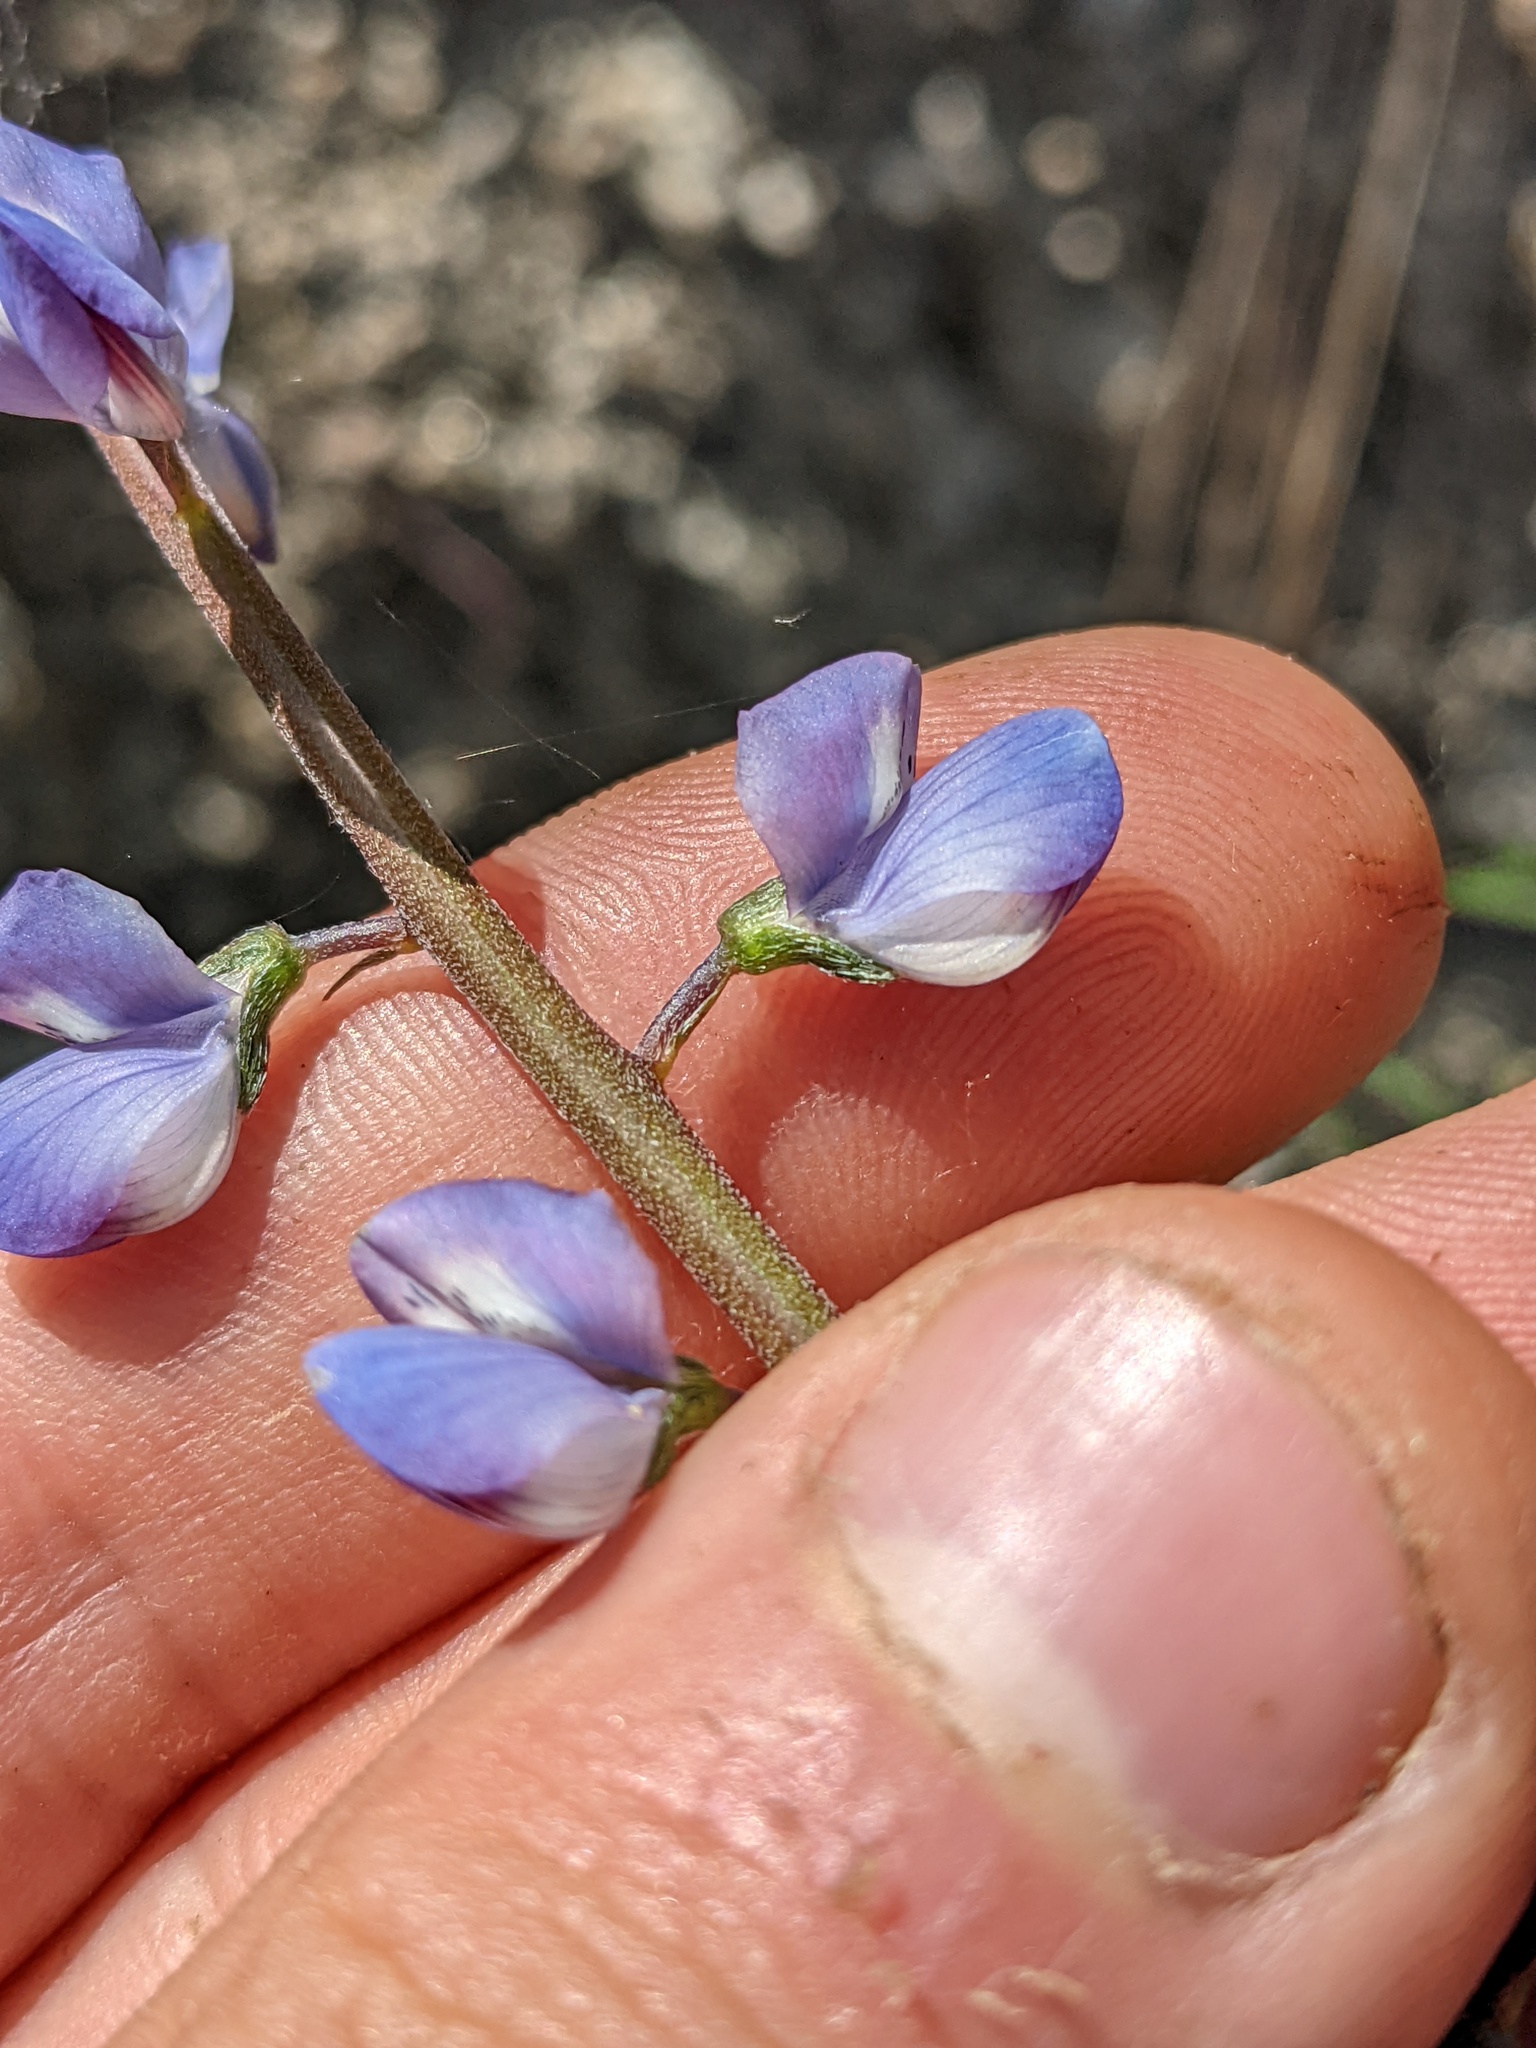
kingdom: Plantae
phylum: Tracheophyta
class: Magnoliopsida
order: Fabales
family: Fabaceae
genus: Lupinus
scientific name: Lupinus truncatus
